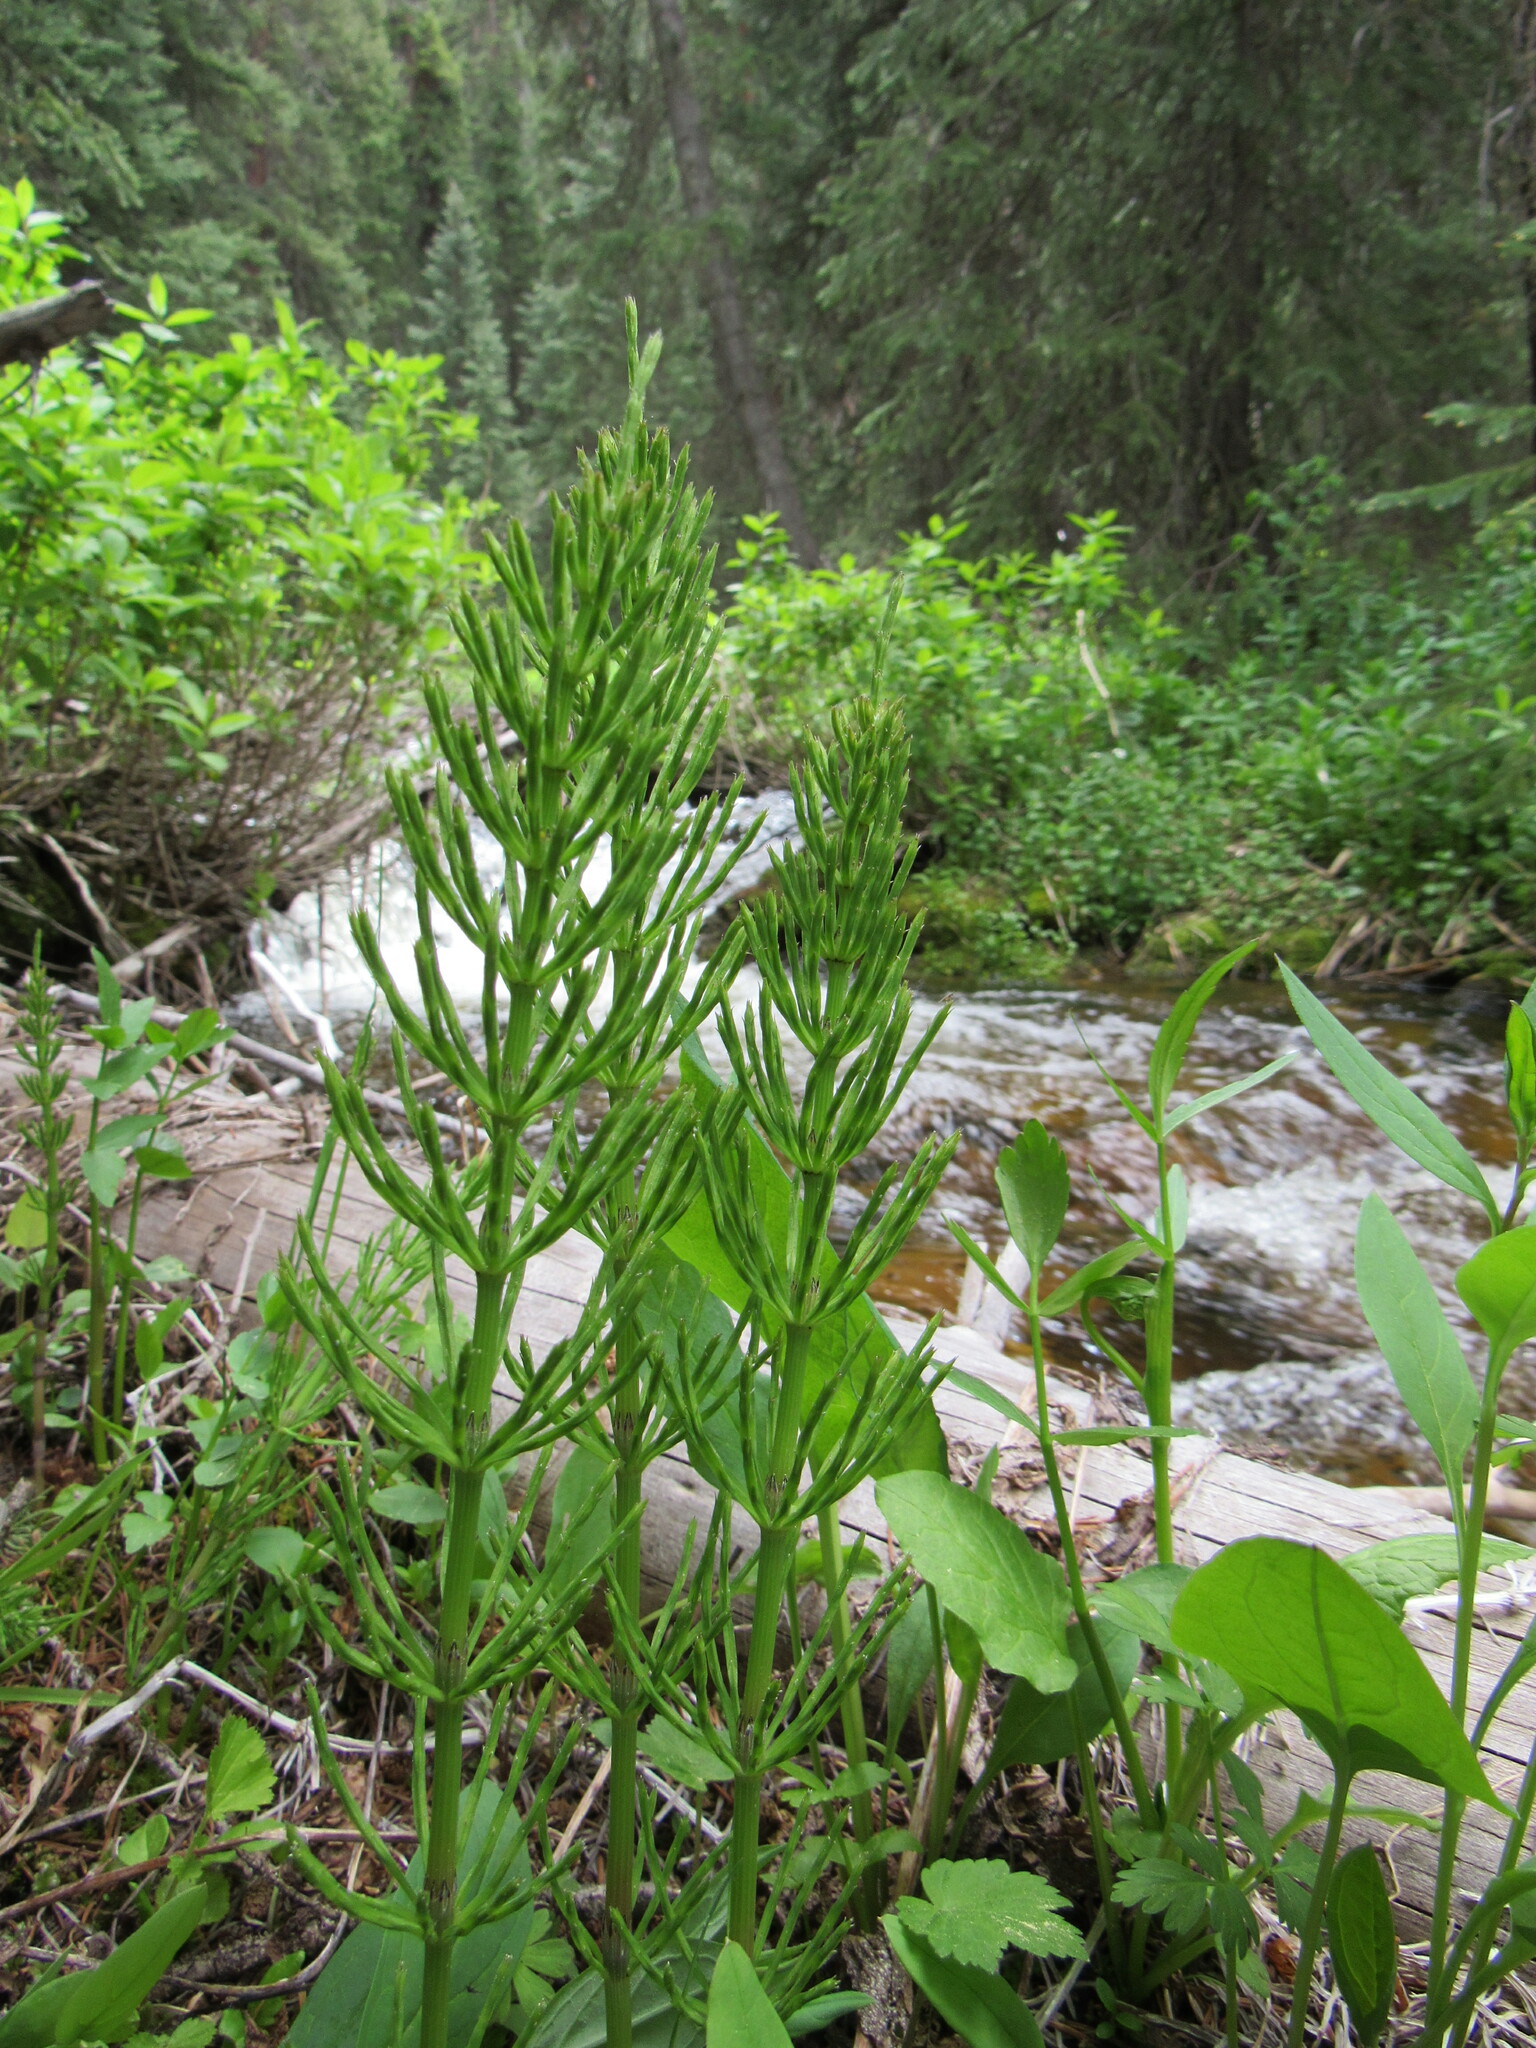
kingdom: Plantae
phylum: Tracheophyta
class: Polypodiopsida
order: Equisetales
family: Equisetaceae
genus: Equisetum
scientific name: Equisetum arvense
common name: Field horsetail
